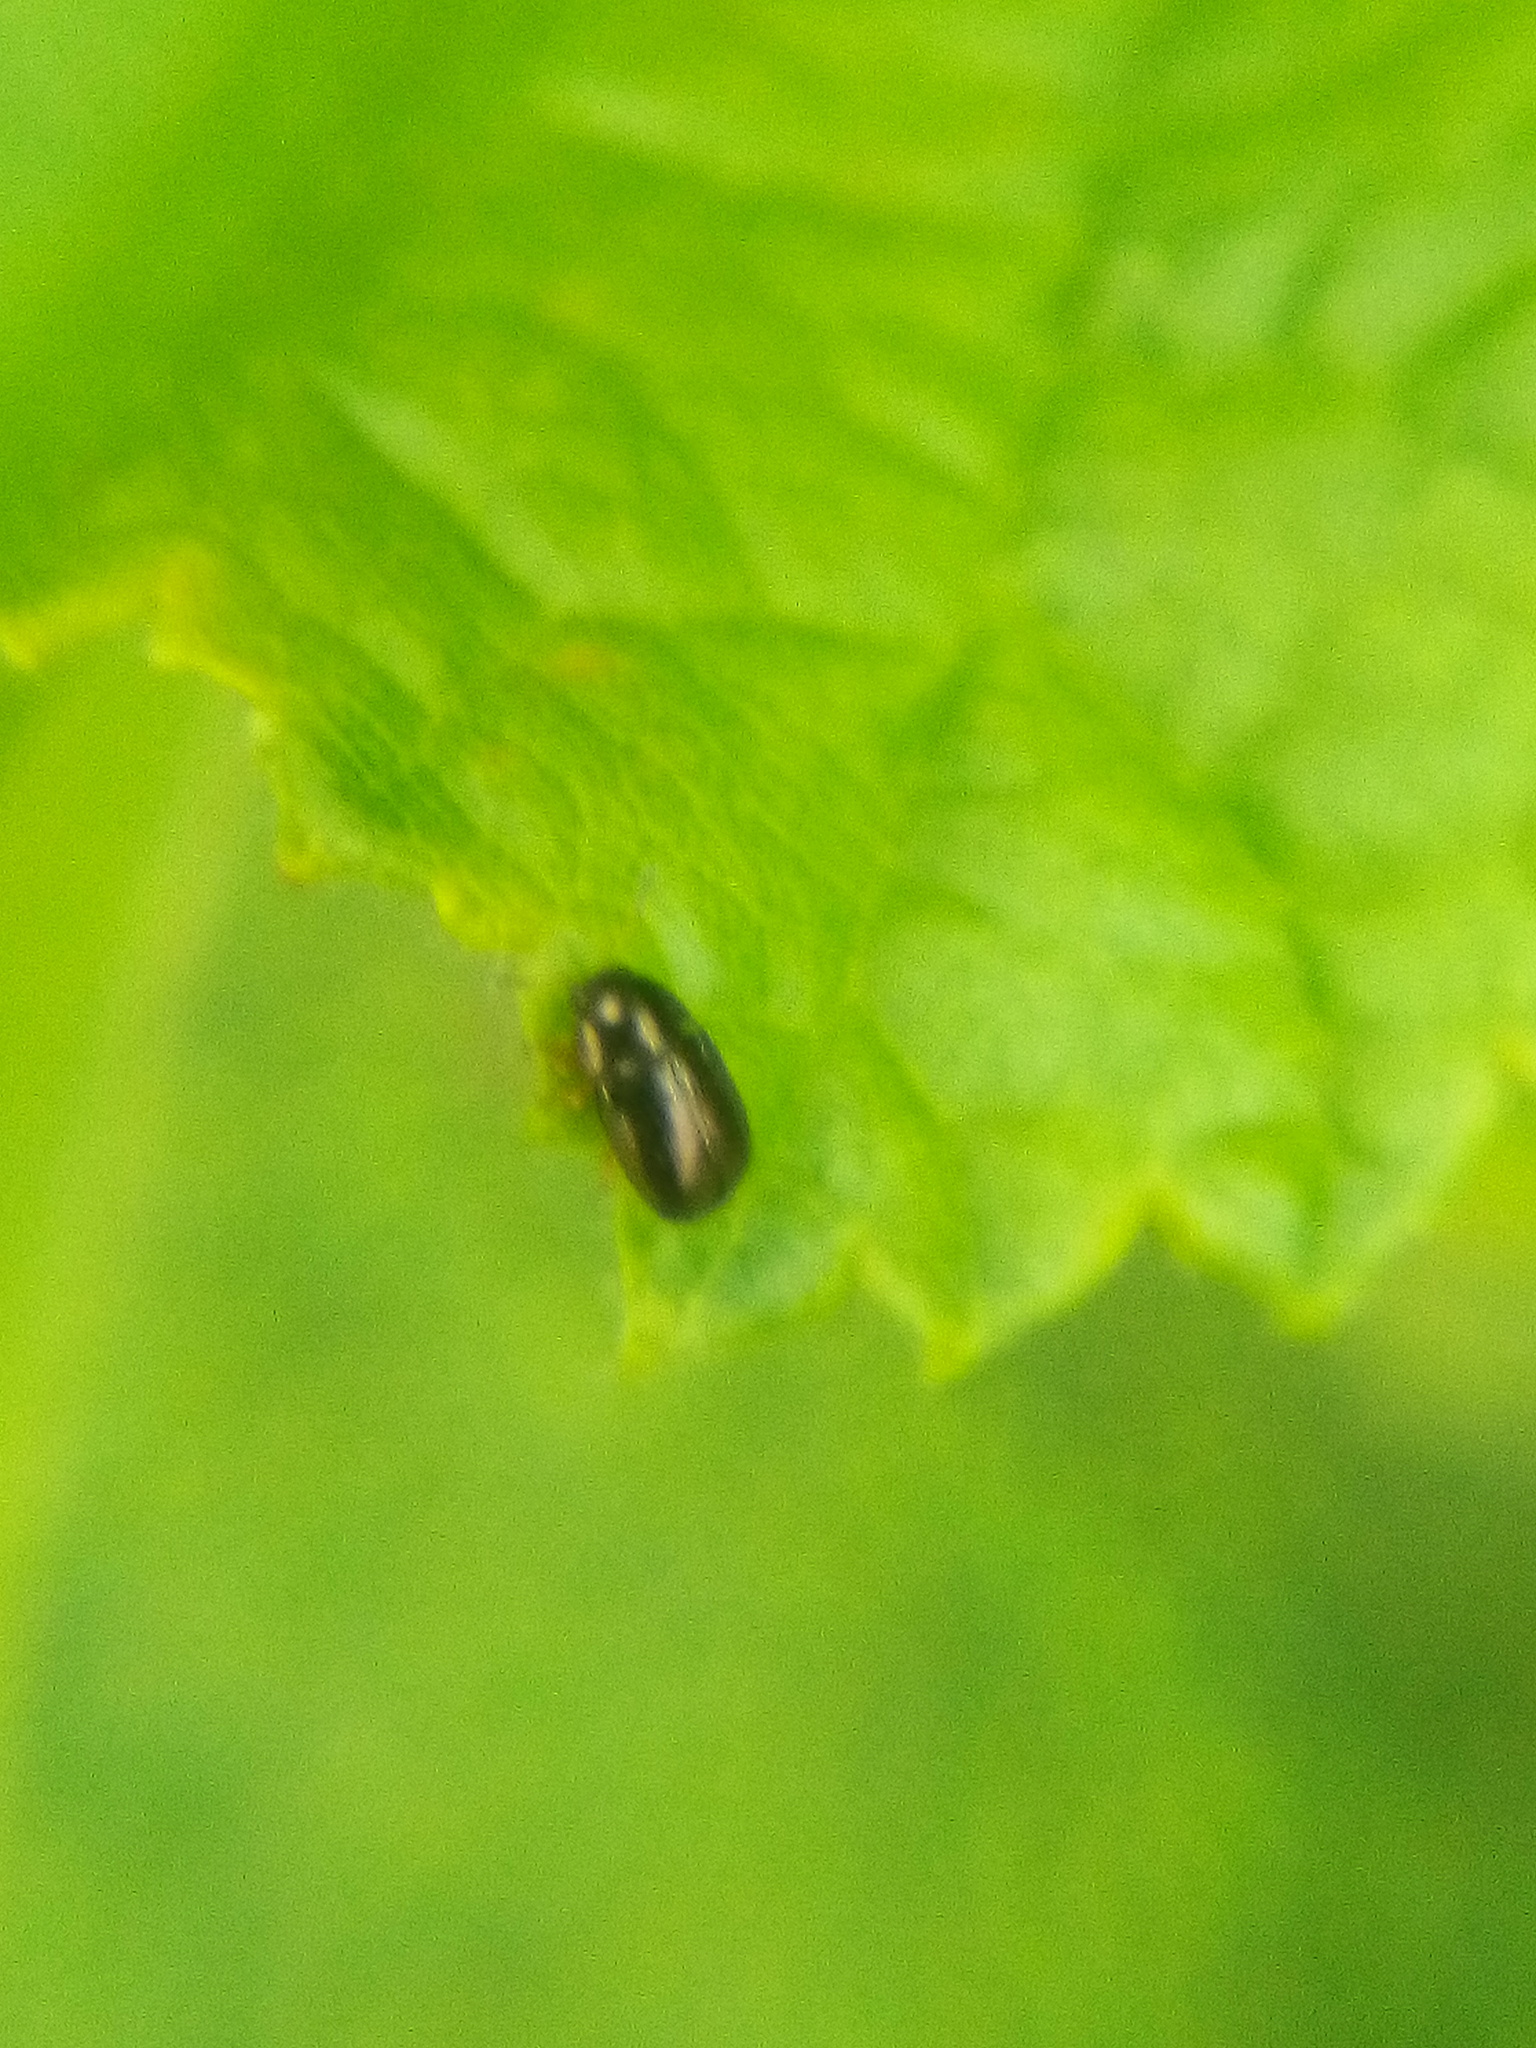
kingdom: Animalia
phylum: Arthropoda
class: Insecta
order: Coleoptera
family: Chrysomelidae
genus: Diachus
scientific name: Diachus auratus
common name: Bronze leaf beetle
